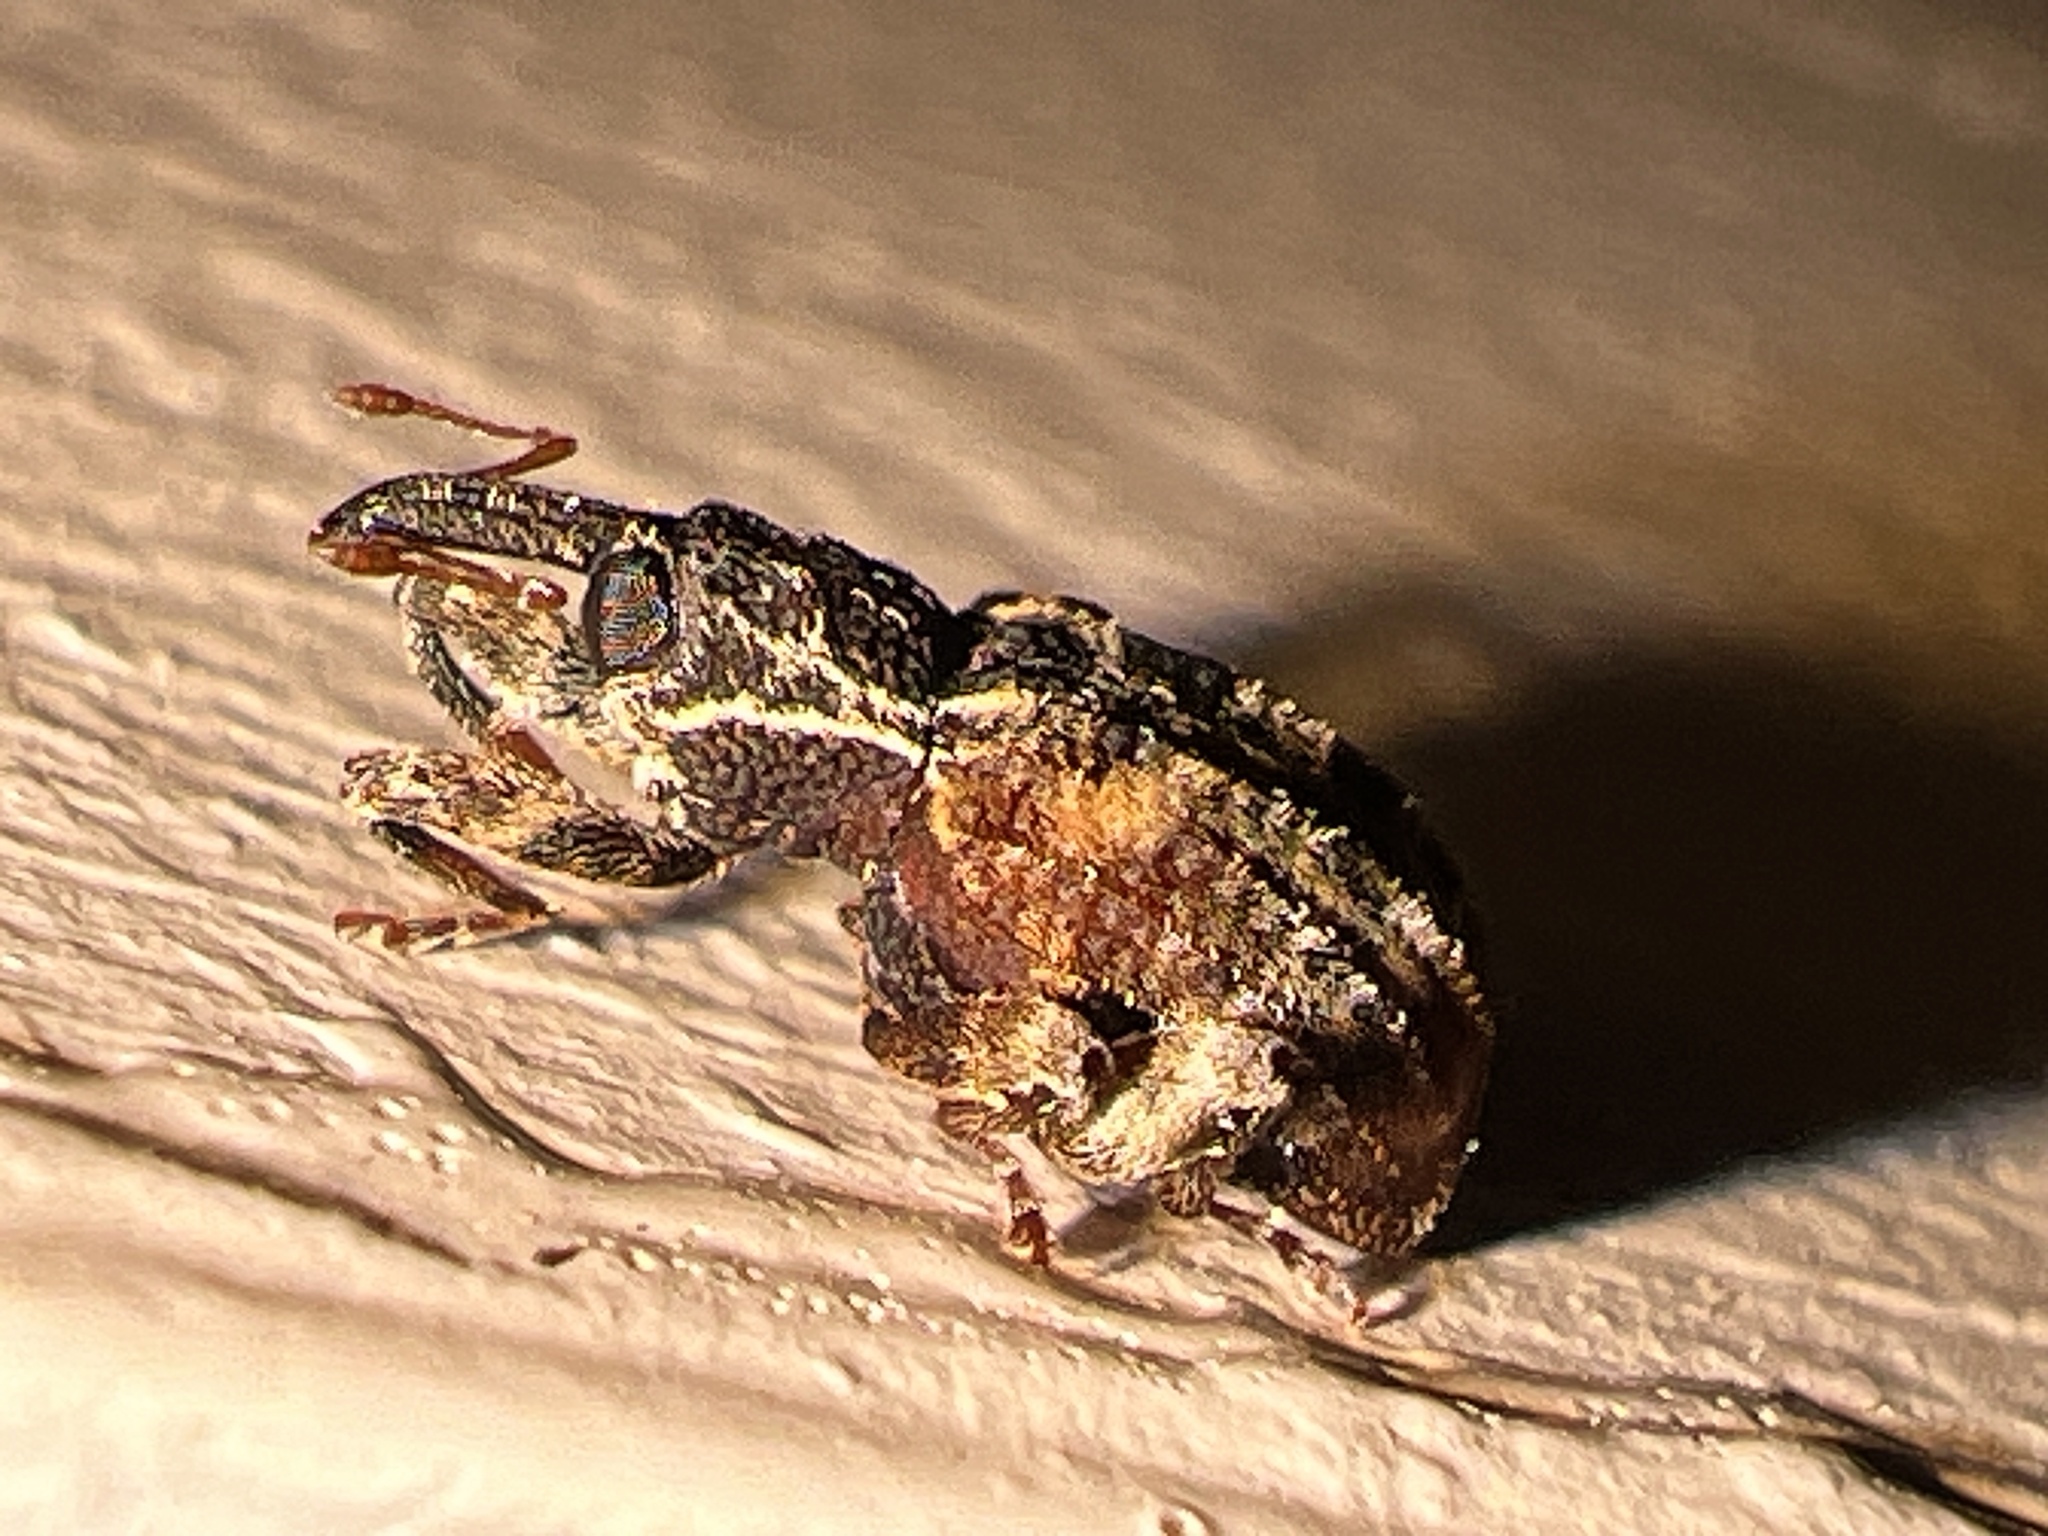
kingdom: Animalia
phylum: Arthropoda
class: Insecta
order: Coleoptera
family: Curculionidae
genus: Conotrachelus
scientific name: Conotrachelus anaglypticus
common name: Cambium curculio
